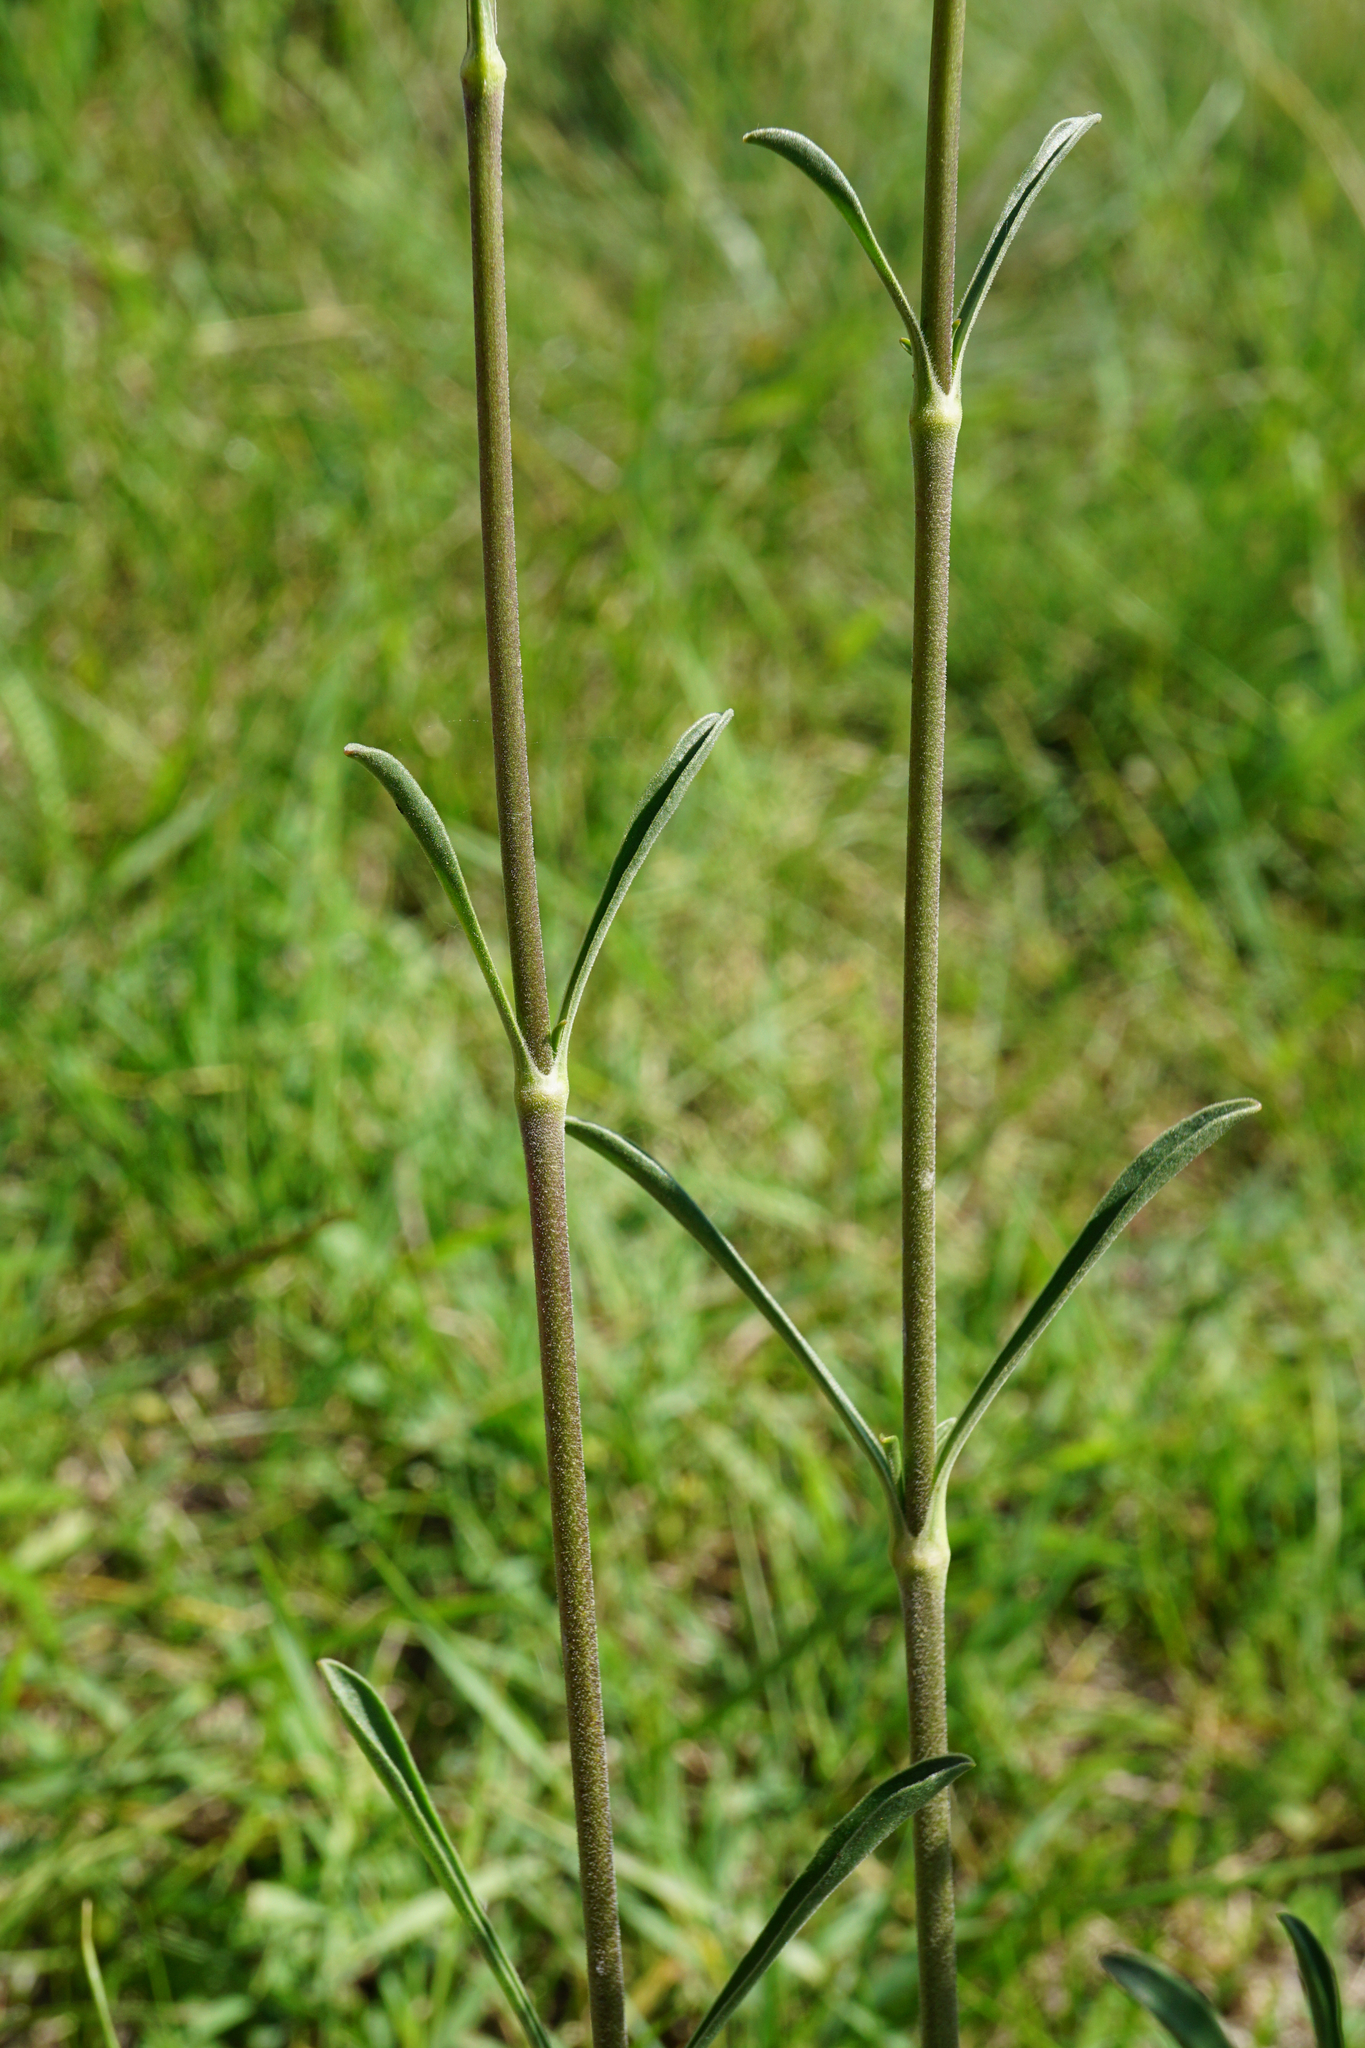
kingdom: Plantae
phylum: Tracheophyta
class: Magnoliopsida
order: Caryophyllales
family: Caryophyllaceae
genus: Silene
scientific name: Silene otites
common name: Spanish catchfly
